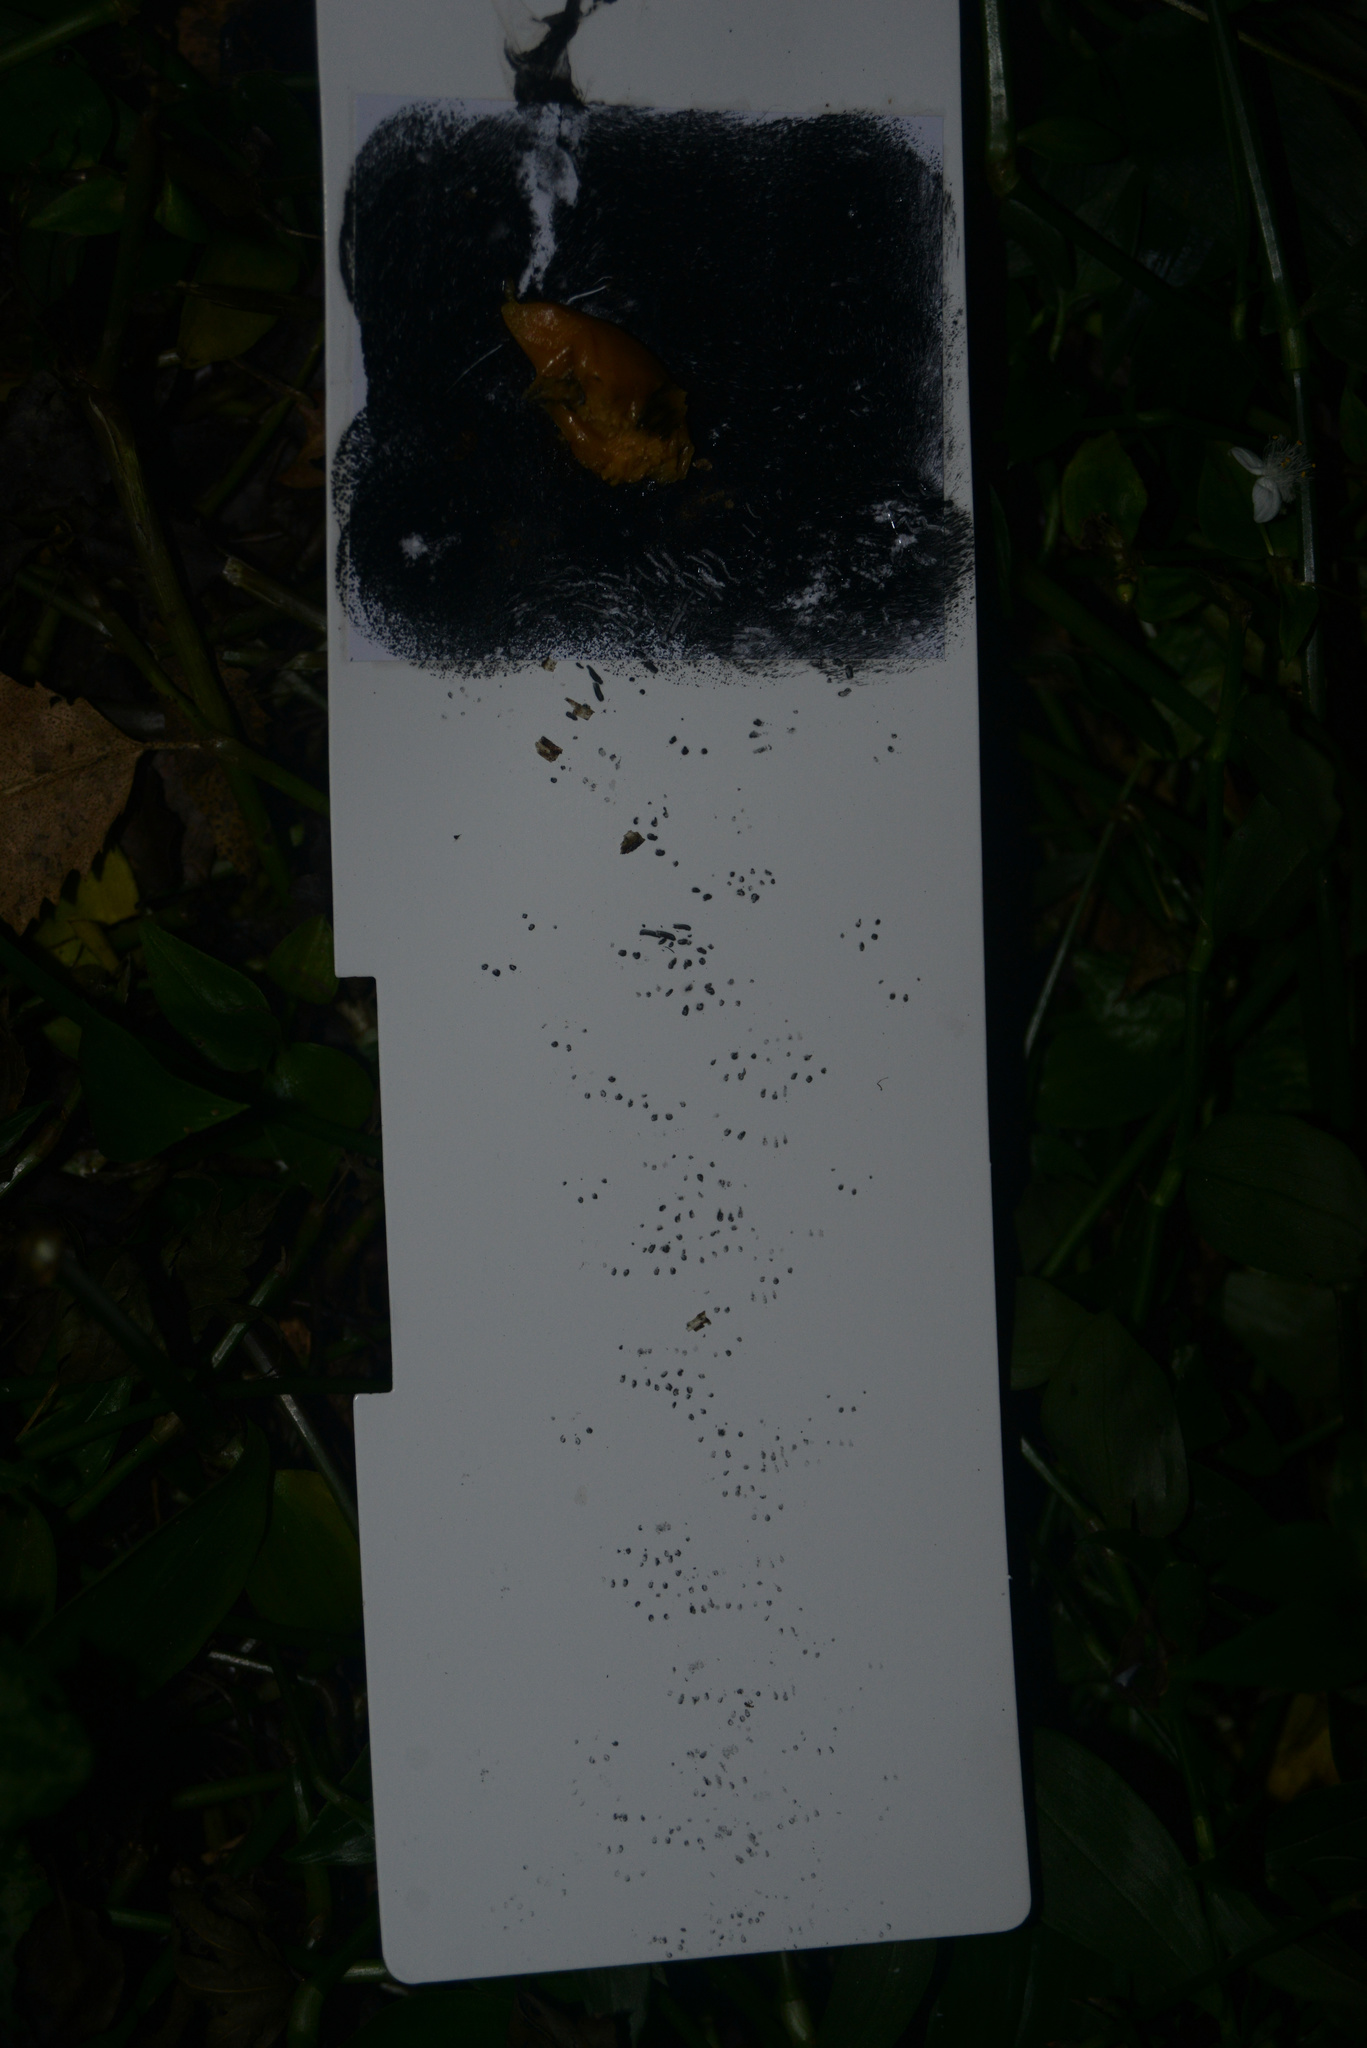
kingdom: Animalia
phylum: Chordata
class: Mammalia
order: Rodentia
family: Muridae
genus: Mus
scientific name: Mus musculus
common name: House mouse
